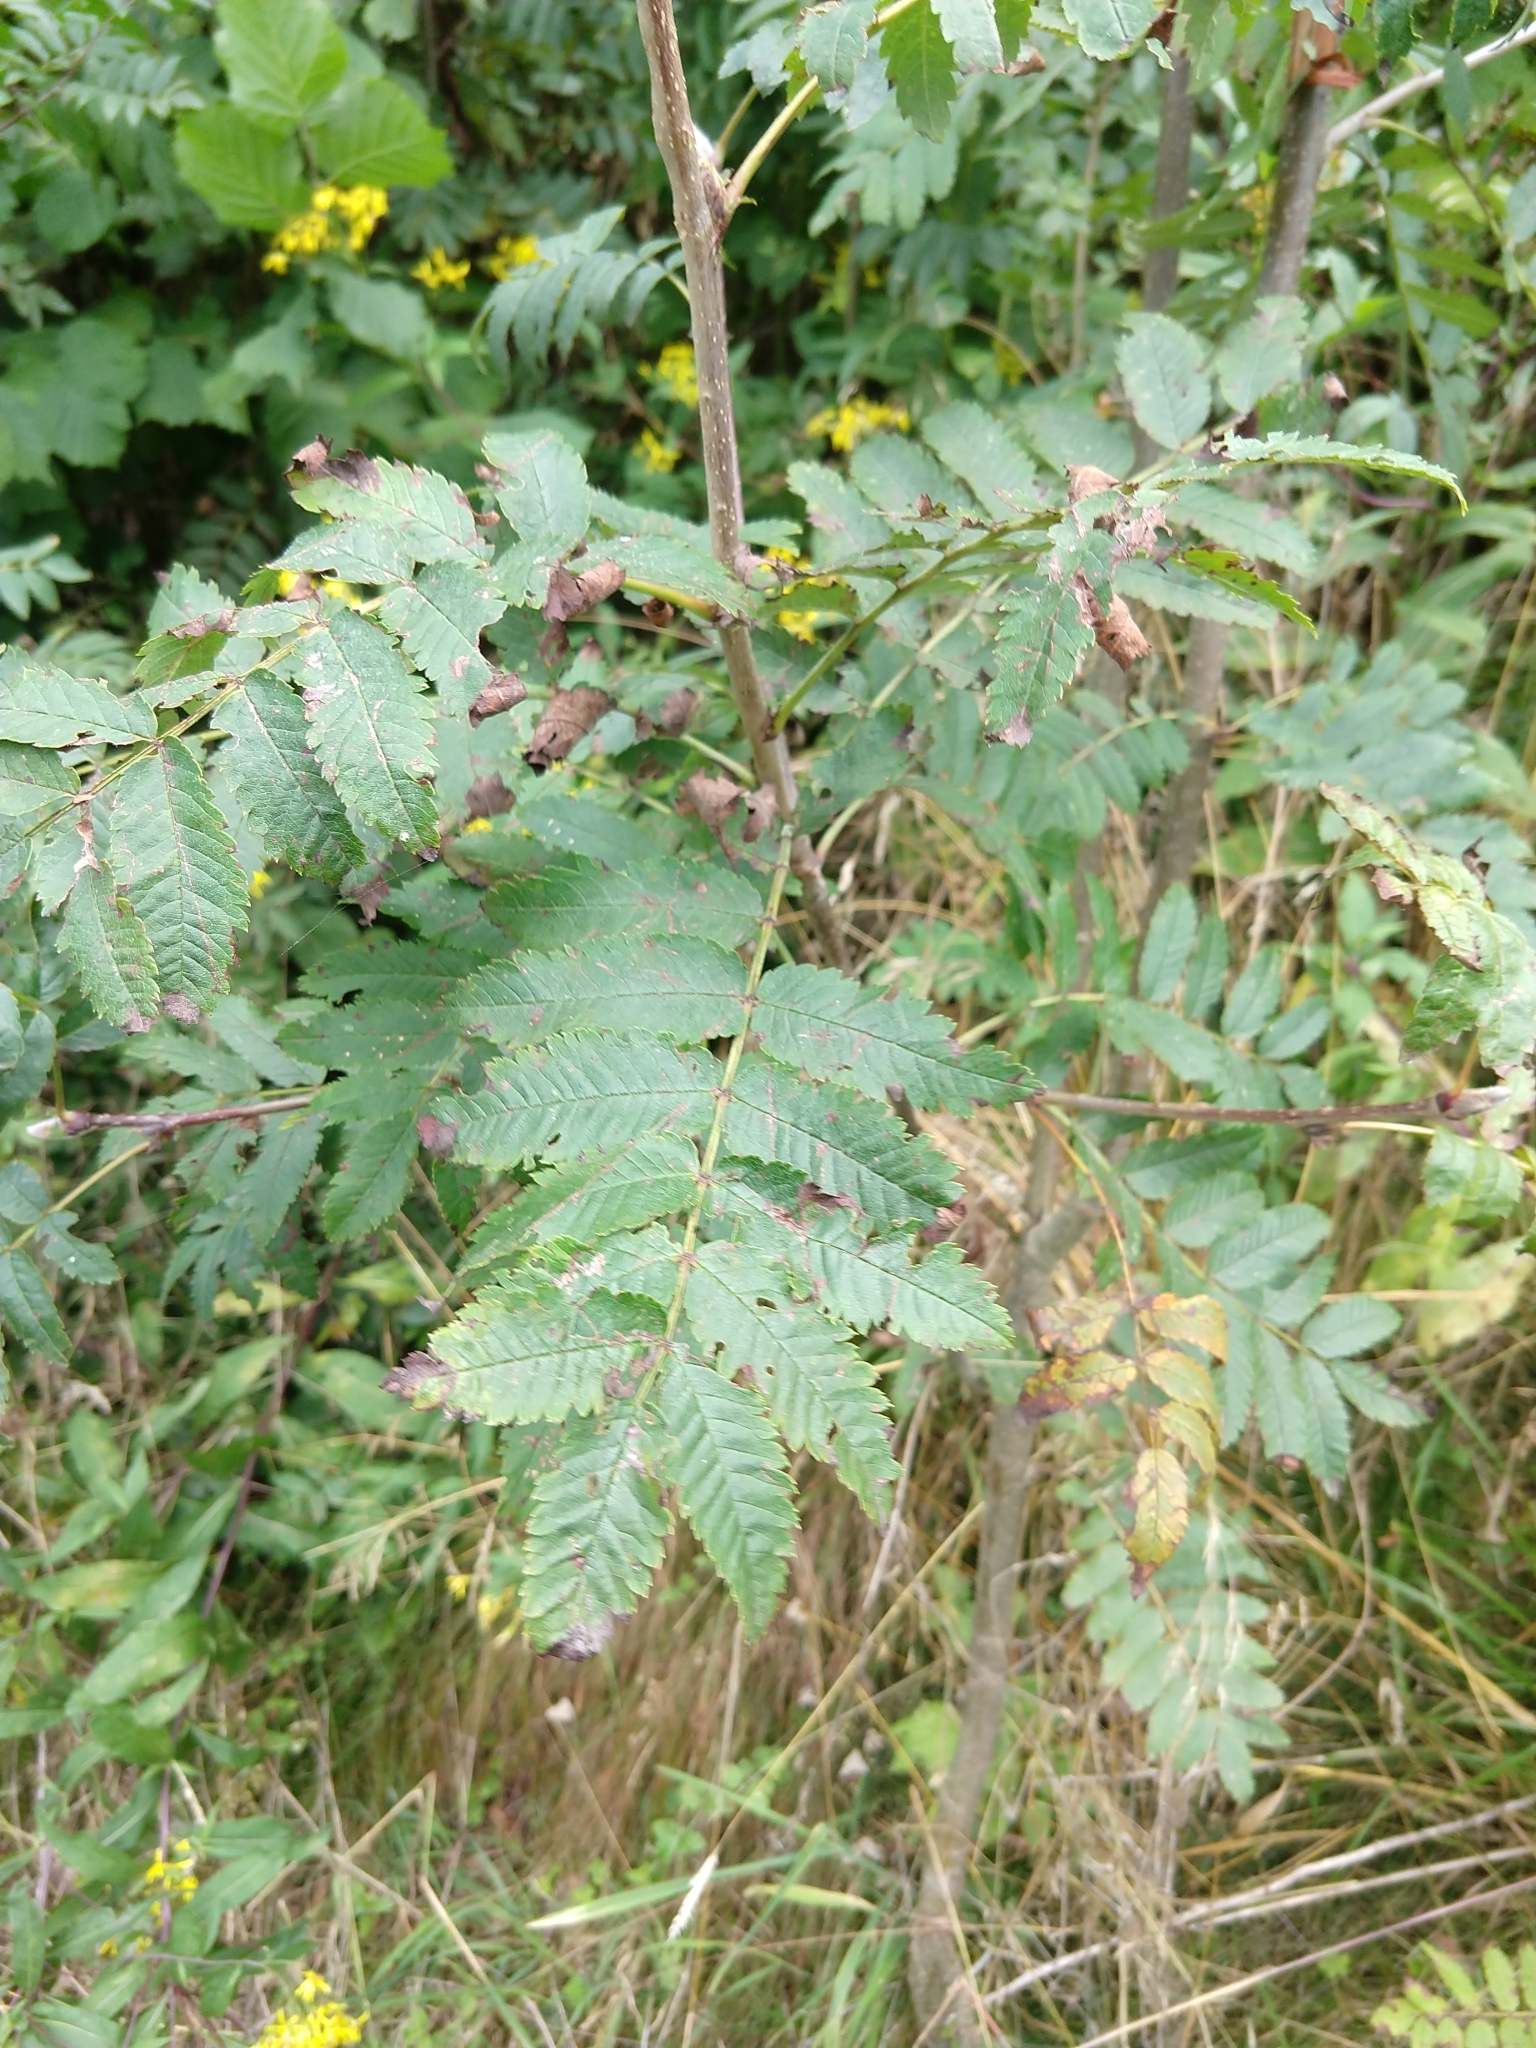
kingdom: Plantae
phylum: Tracheophyta
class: Magnoliopsida
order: Rosales
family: Rosaceae
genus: Sorbus
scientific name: Sorbus aucuparia
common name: Rowan
